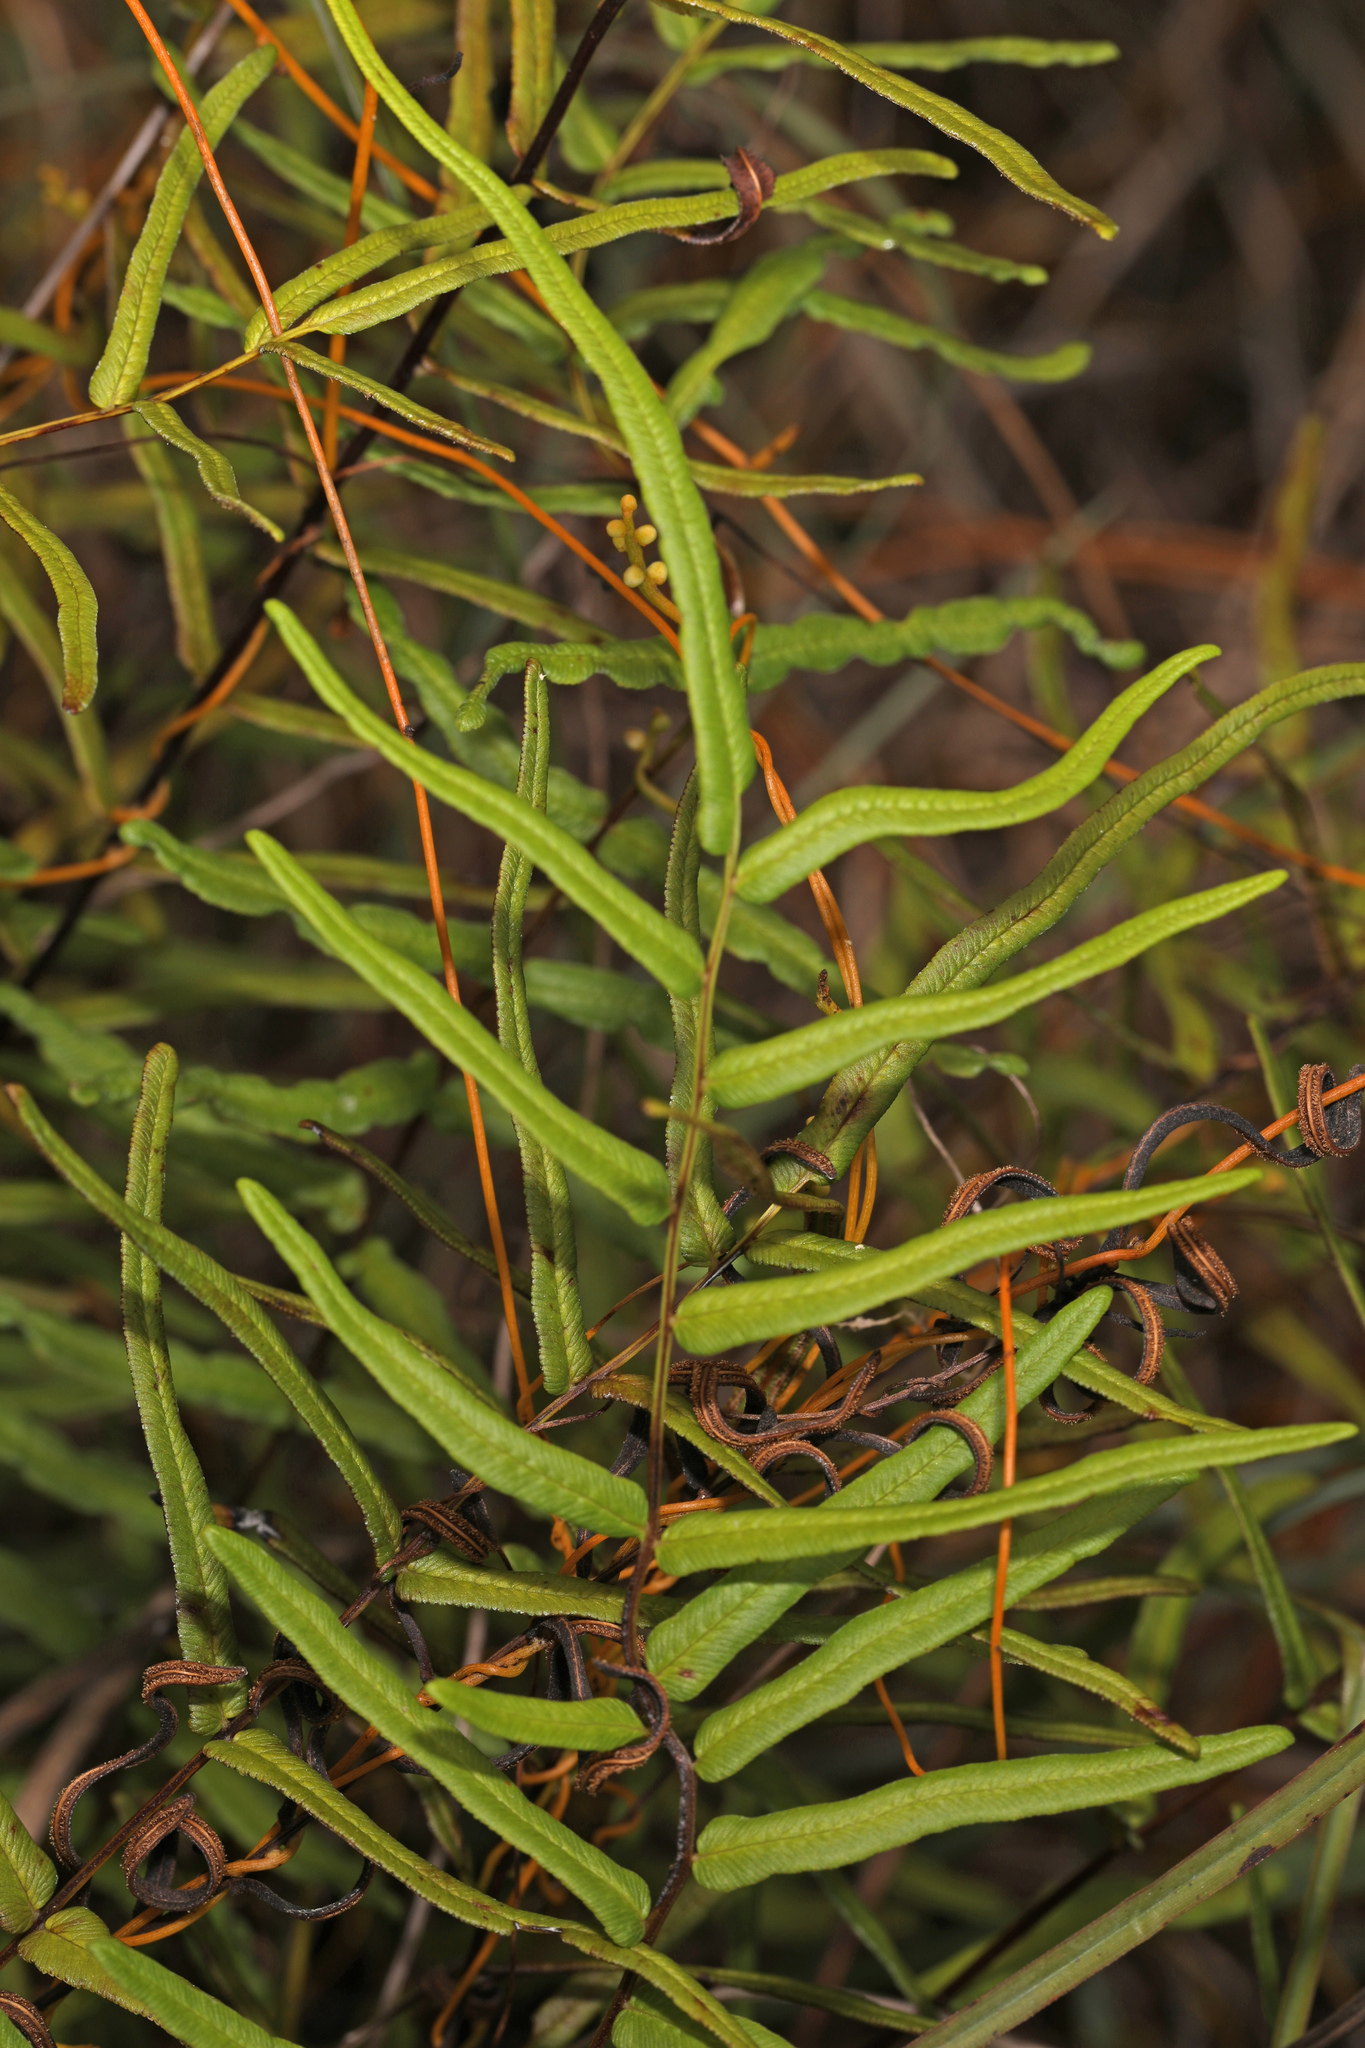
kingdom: Plantae
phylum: Tracheophyta
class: Polypodiopsida
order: Polypodiales
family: Pteridaceae
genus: Pteris
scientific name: Pteris bahamensis
